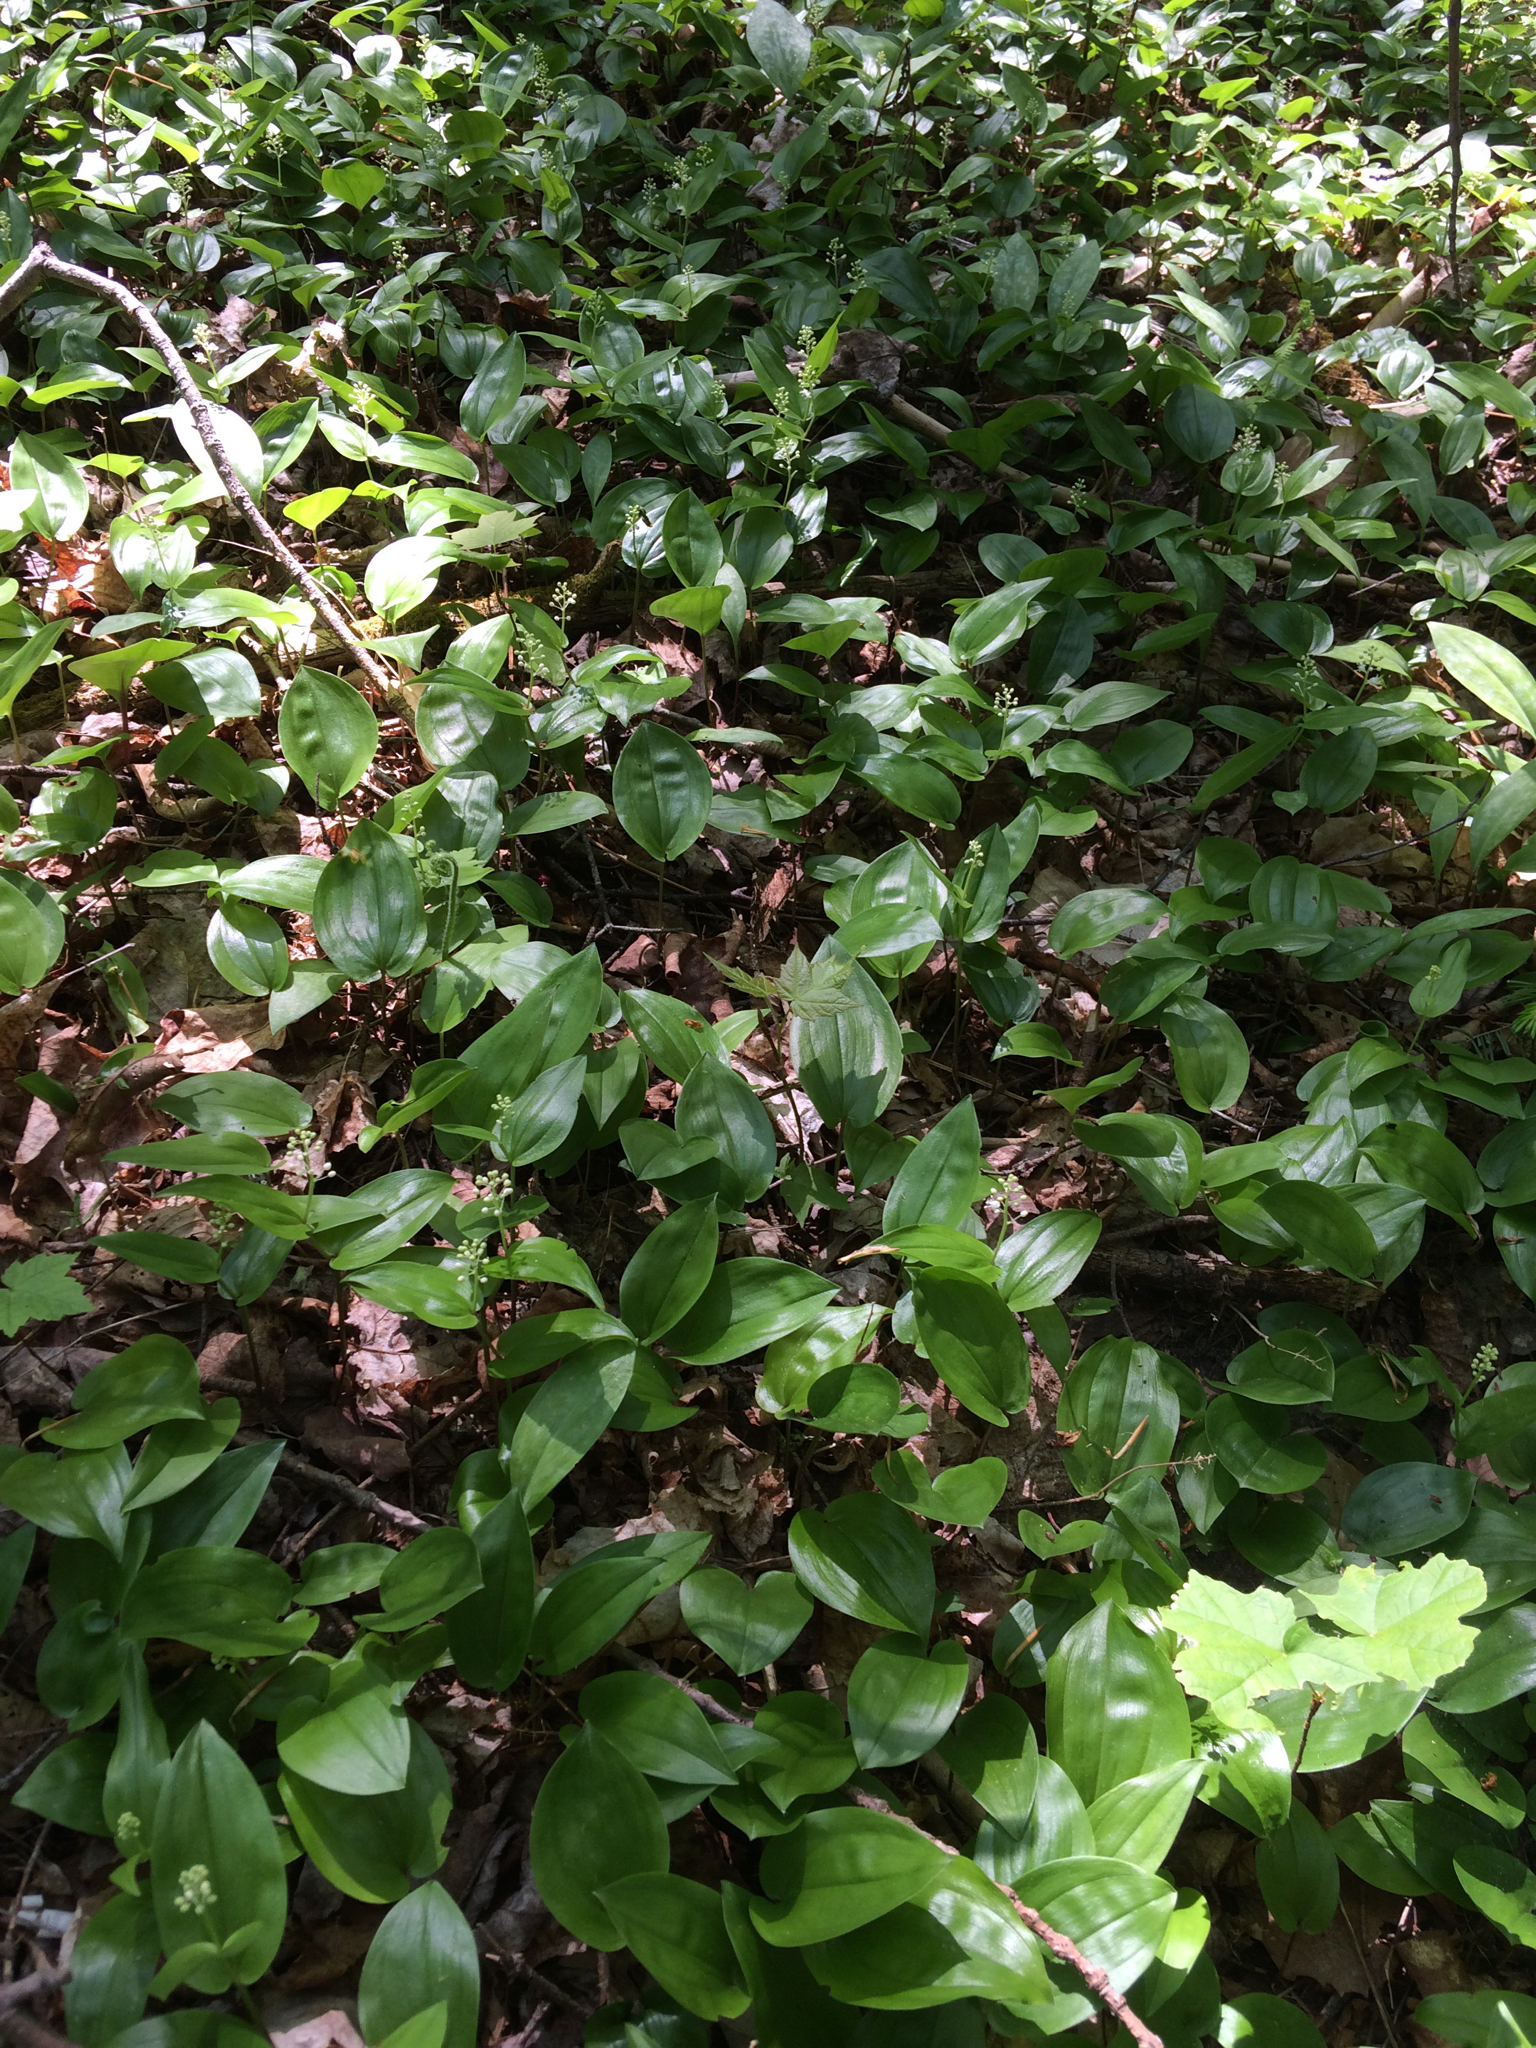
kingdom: Plantae
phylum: Tracheophyta
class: Liliopsida
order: Asparagales
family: Asparagaceae
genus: Maianthemum
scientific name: Maianthemum canadense
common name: False lily-of-the-valley
